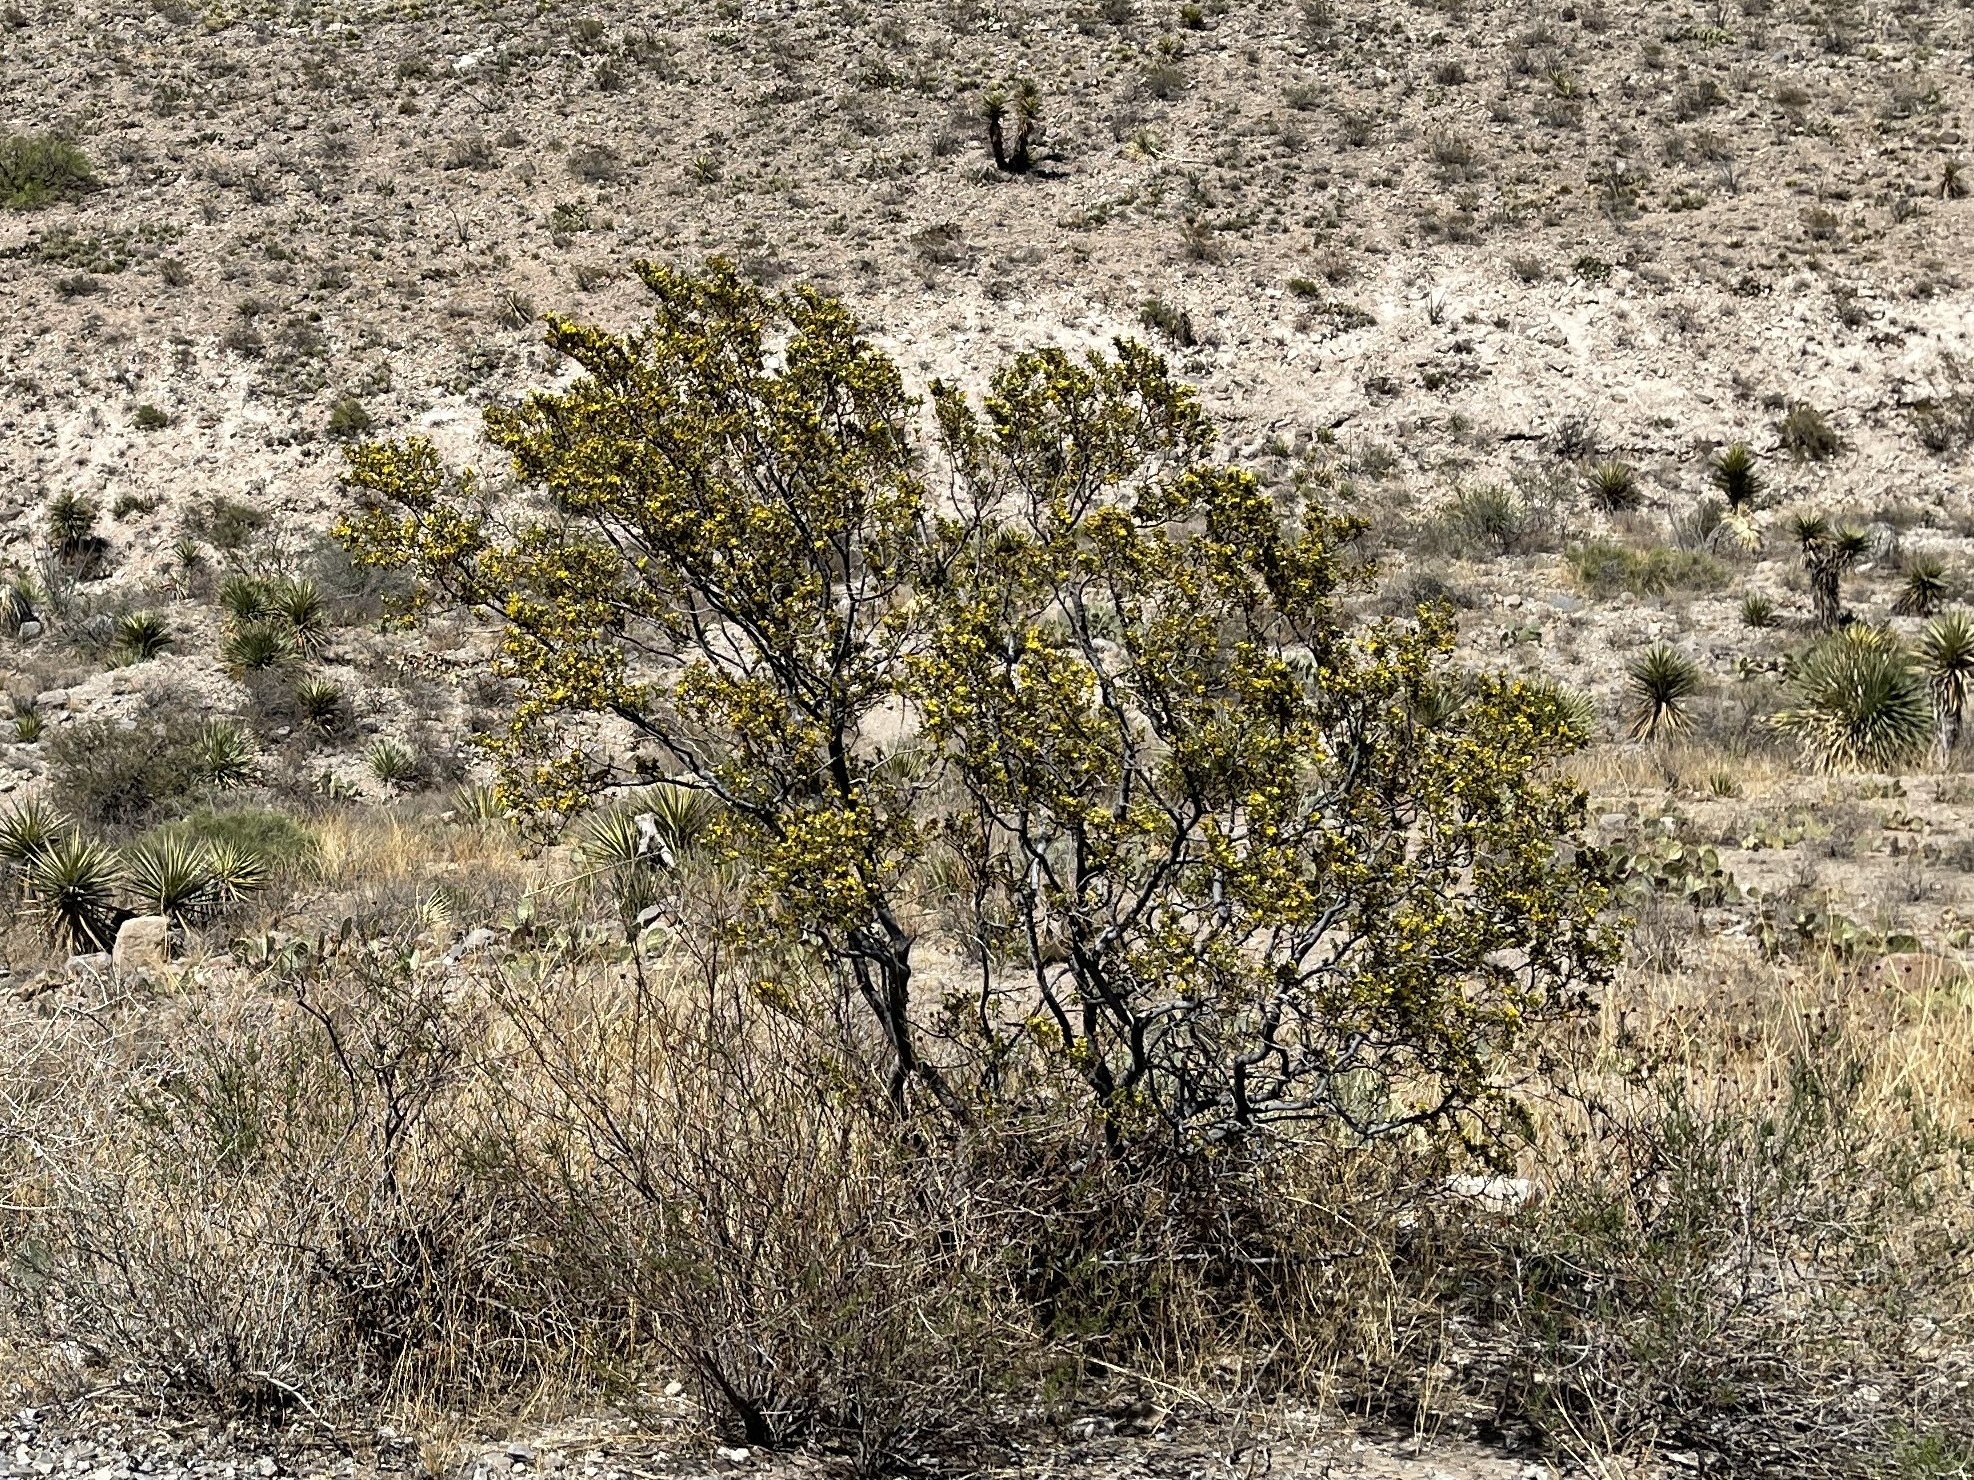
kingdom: Plantae
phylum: Tracheophyta
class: Magnoliopsida
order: Zygophyllales
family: Zygophyllaceae
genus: Larrea
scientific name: Larrea tridentata
